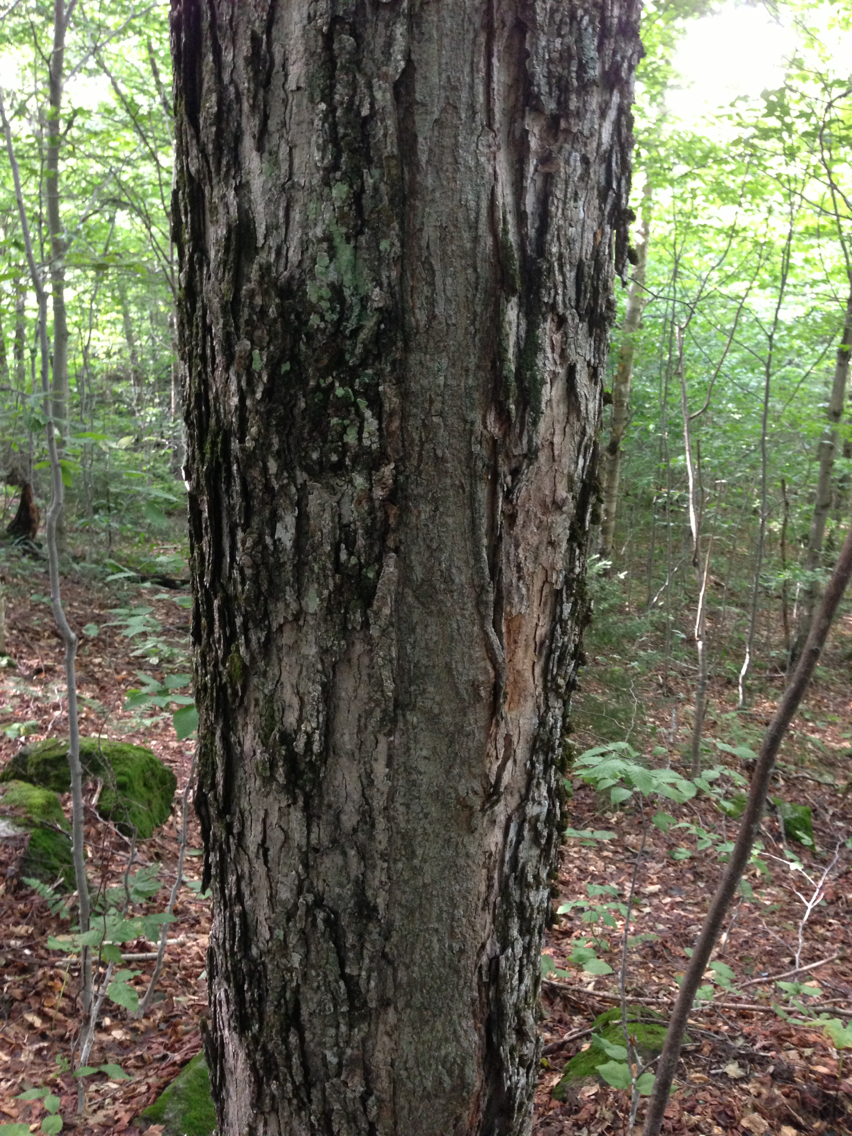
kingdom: Plantae
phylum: Tracheophyta
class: Magnoliopsida
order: Sapindales
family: Sapindaceae
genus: Acer
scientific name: Acer saccharum
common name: Sugar maple
